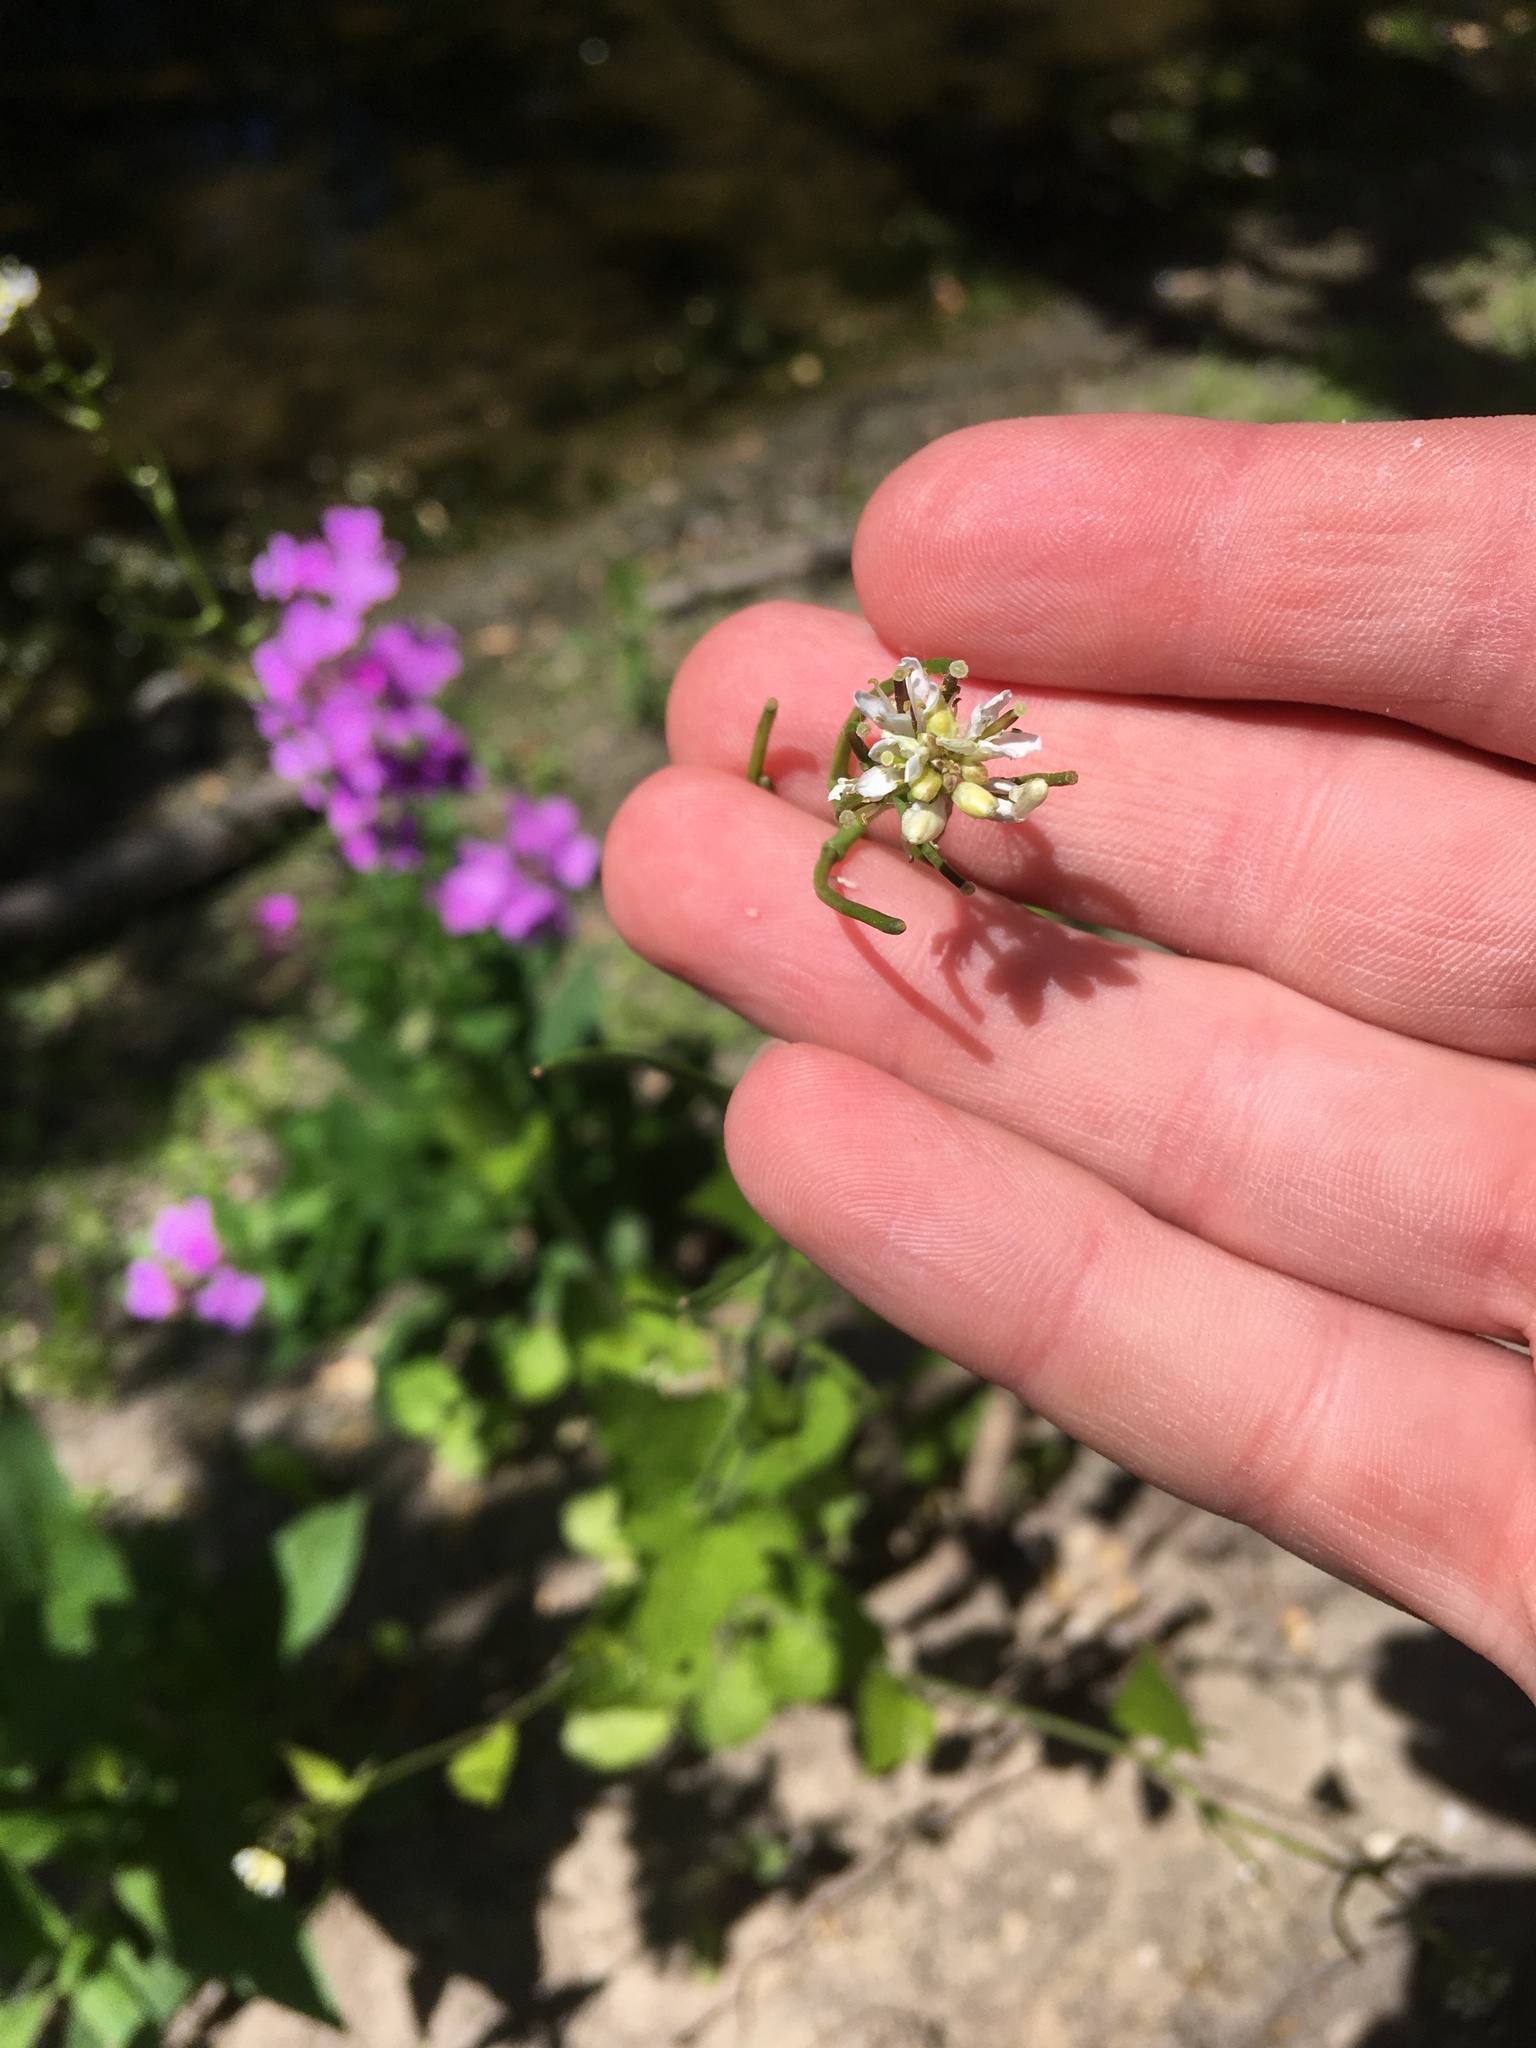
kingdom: Plantae
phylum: Tracheophyta
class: Magnoliopsida
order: Brassicales
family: Brassicaceae
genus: Alliaria
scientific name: Alliaria petiolata
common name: Garlic mustard
